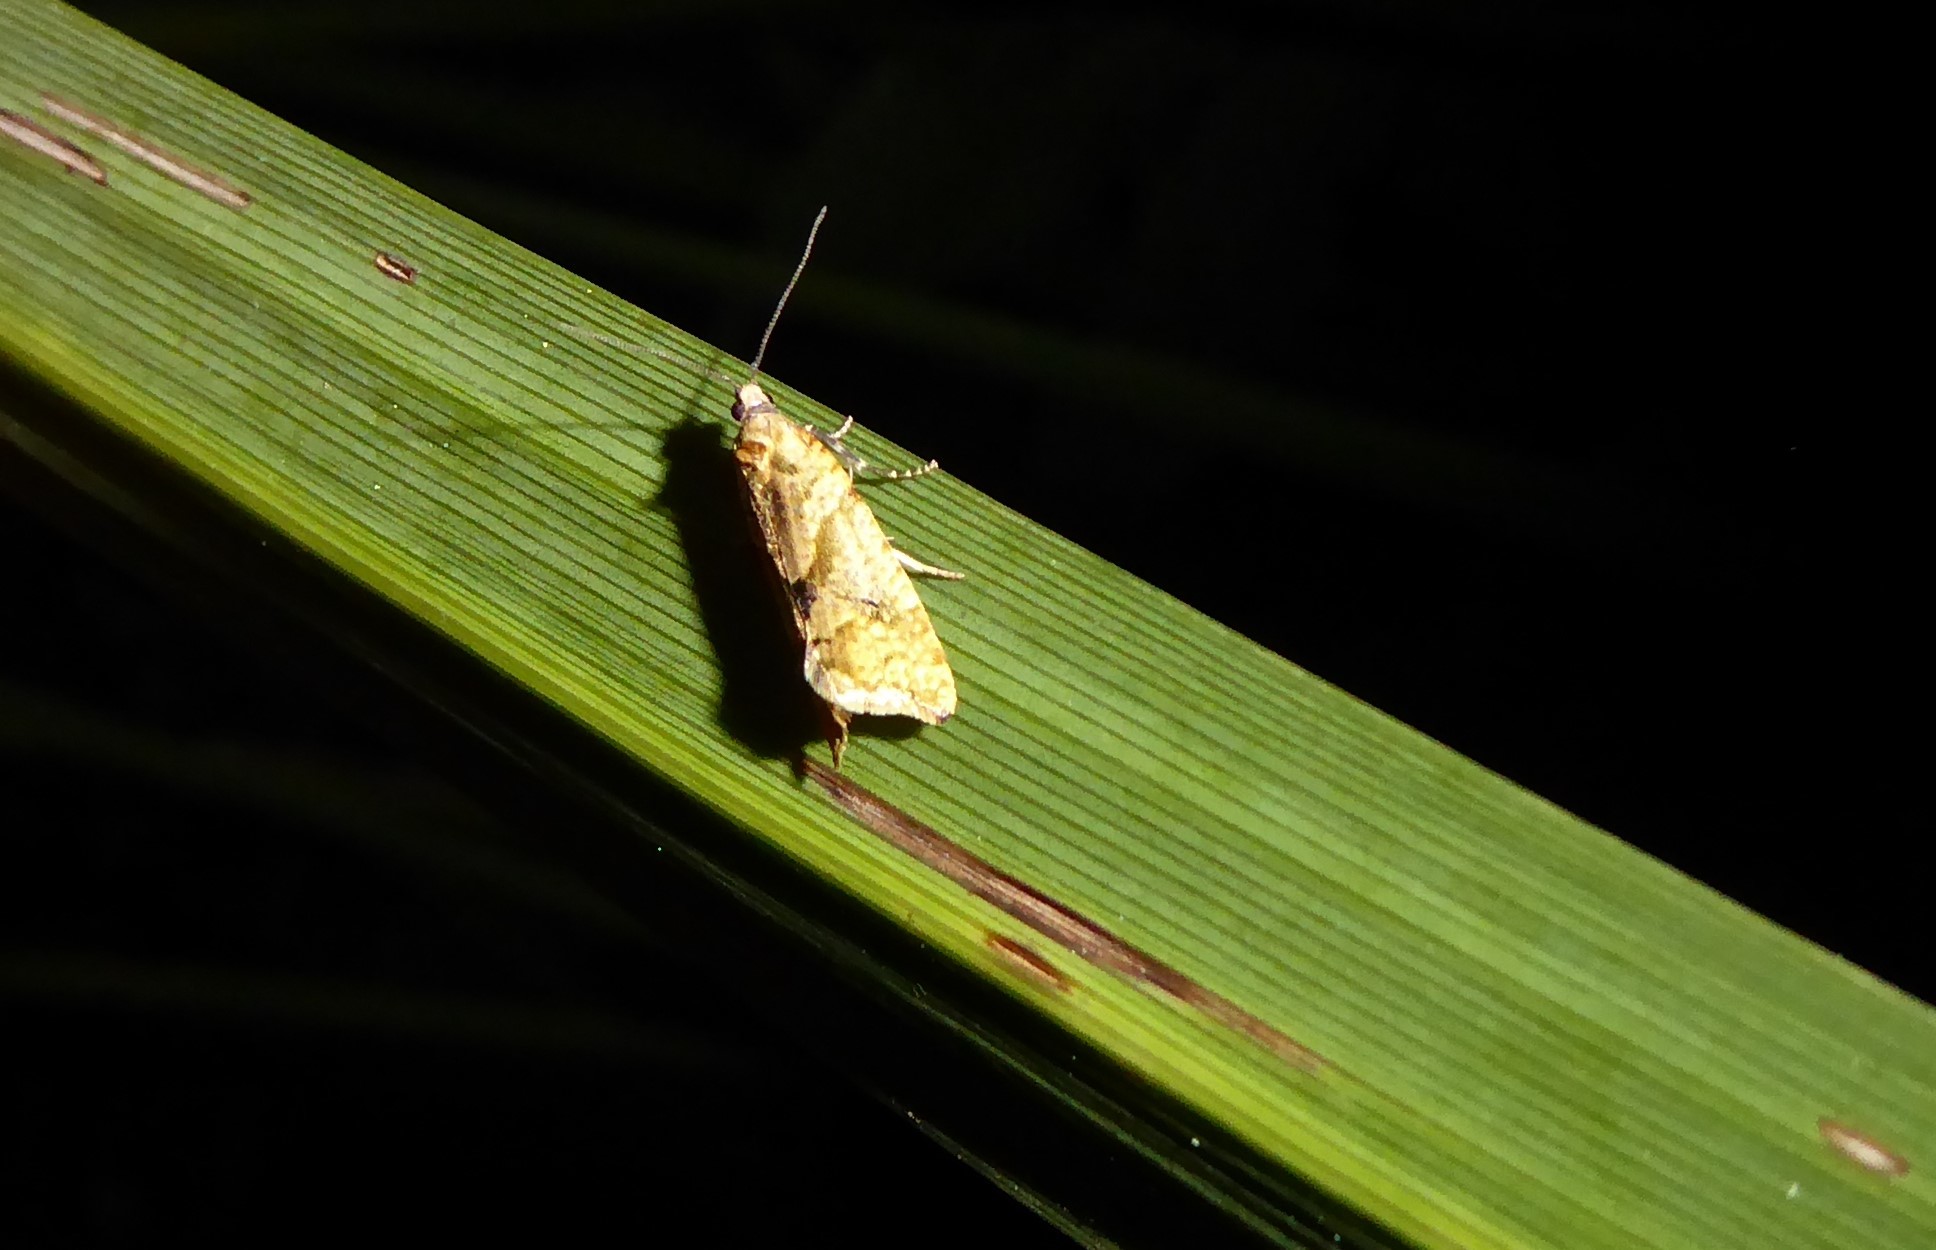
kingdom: Animalia
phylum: Arthropoda
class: Insecta
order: Lepidoptera
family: Tortricidae
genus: Pyrgotis
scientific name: Pyrgotis plagiatana
